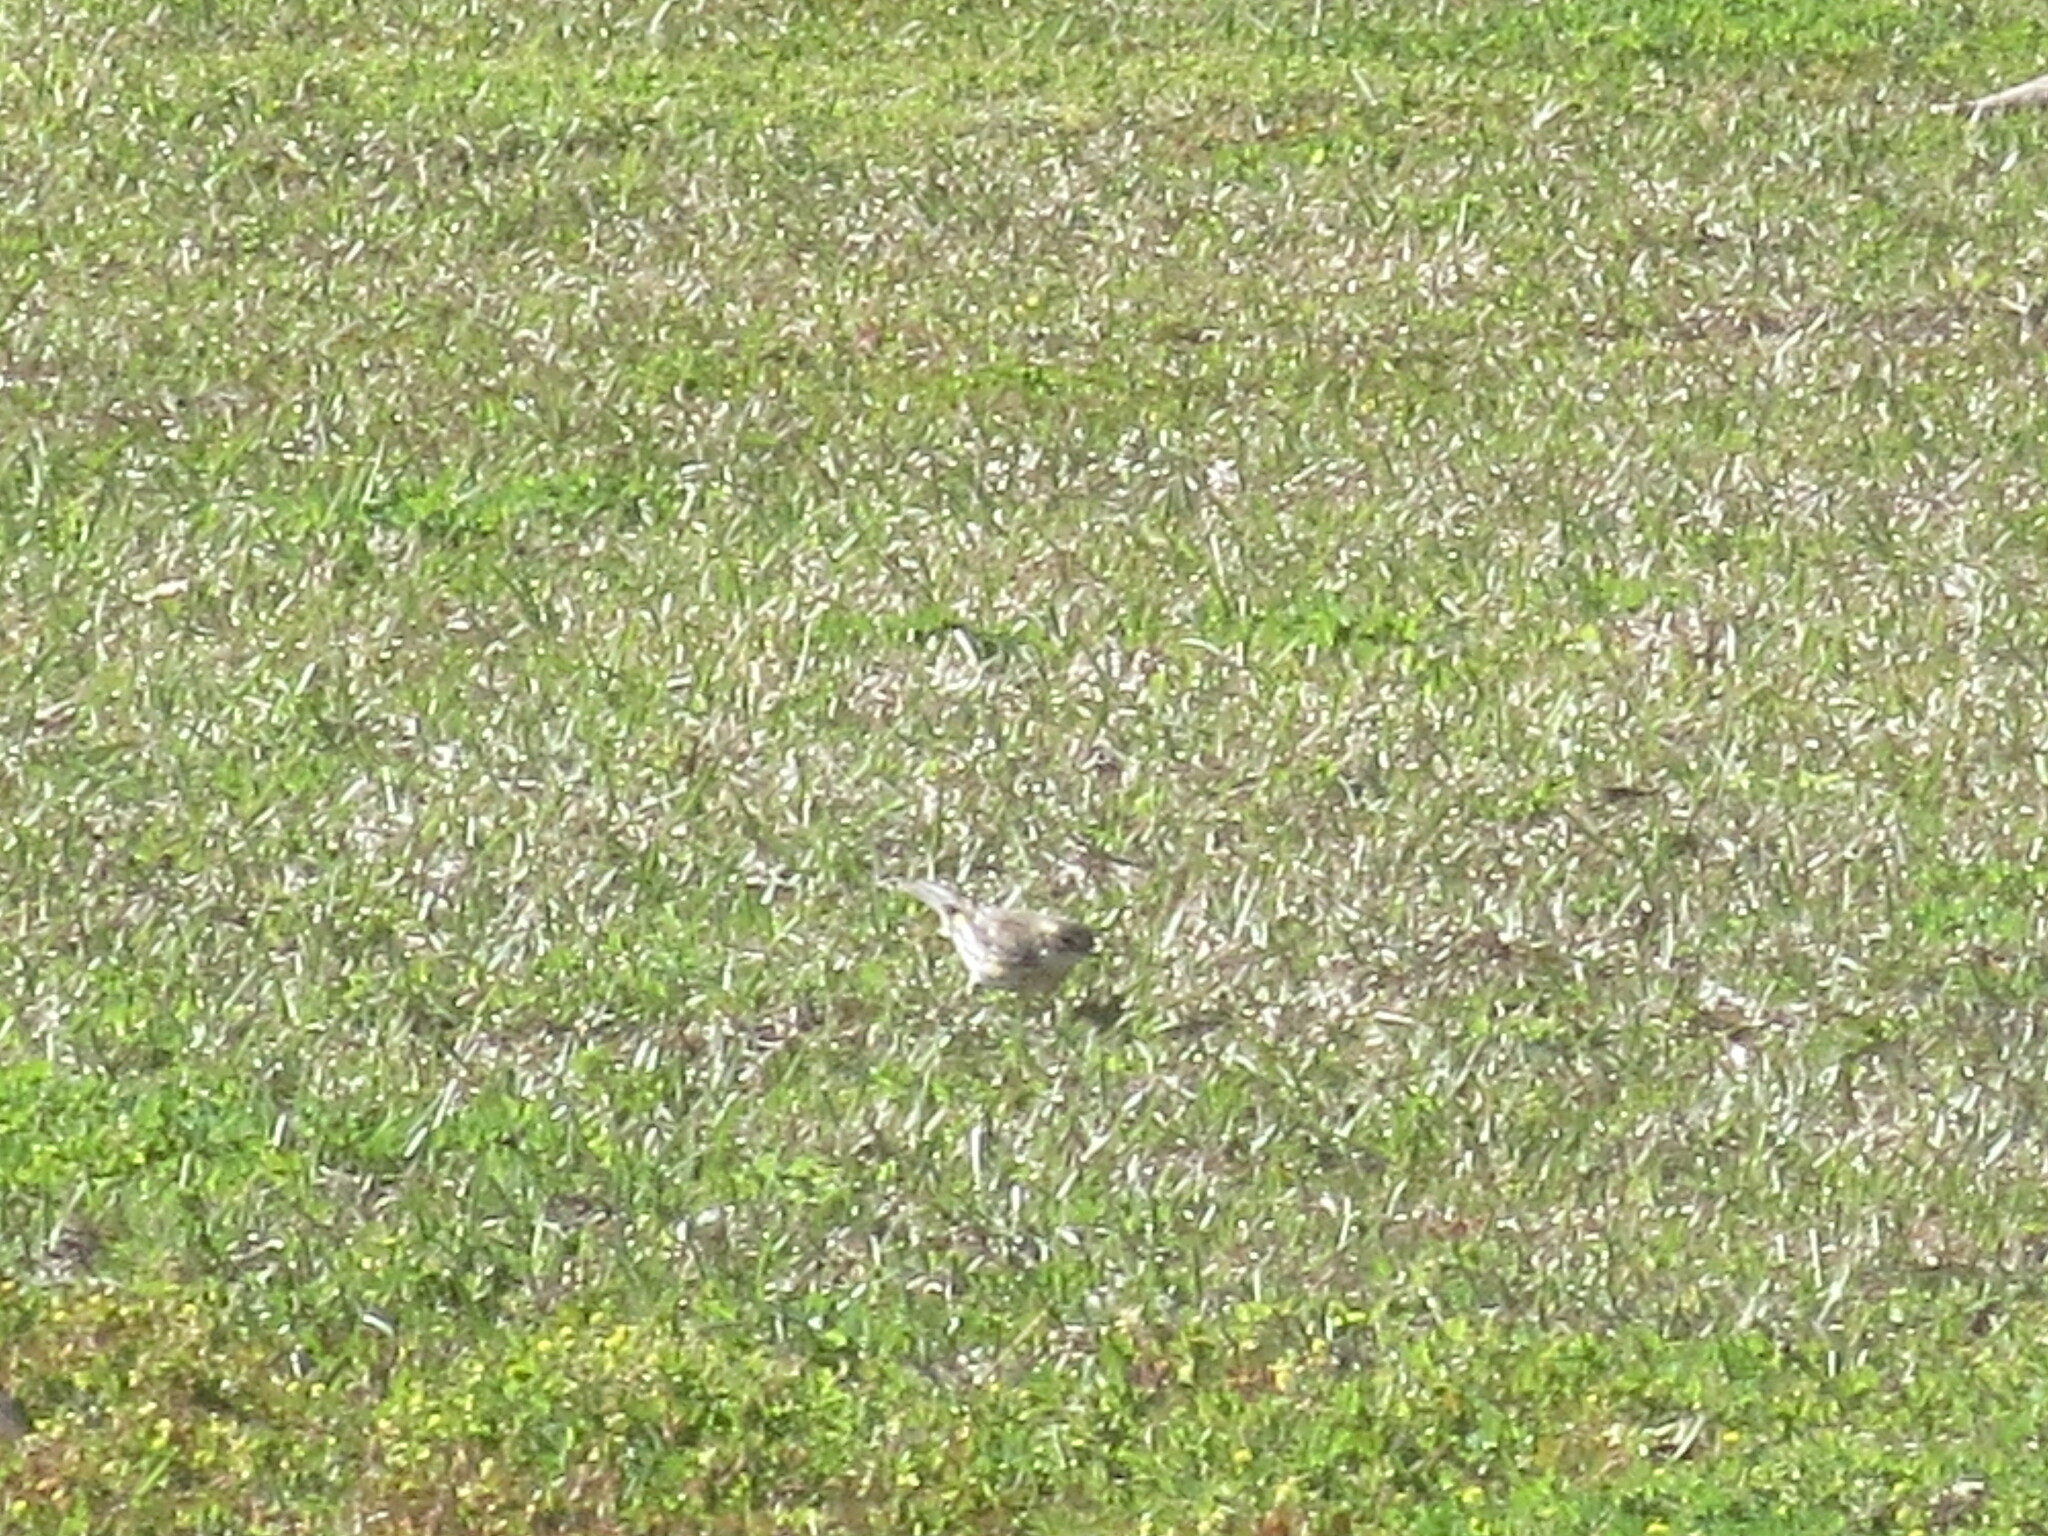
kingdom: Animalia
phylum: Chordata
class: Aves
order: Passeriformes
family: Parulidae
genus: Setophaga
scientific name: Setophaga coronata
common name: Myrtle warbler
